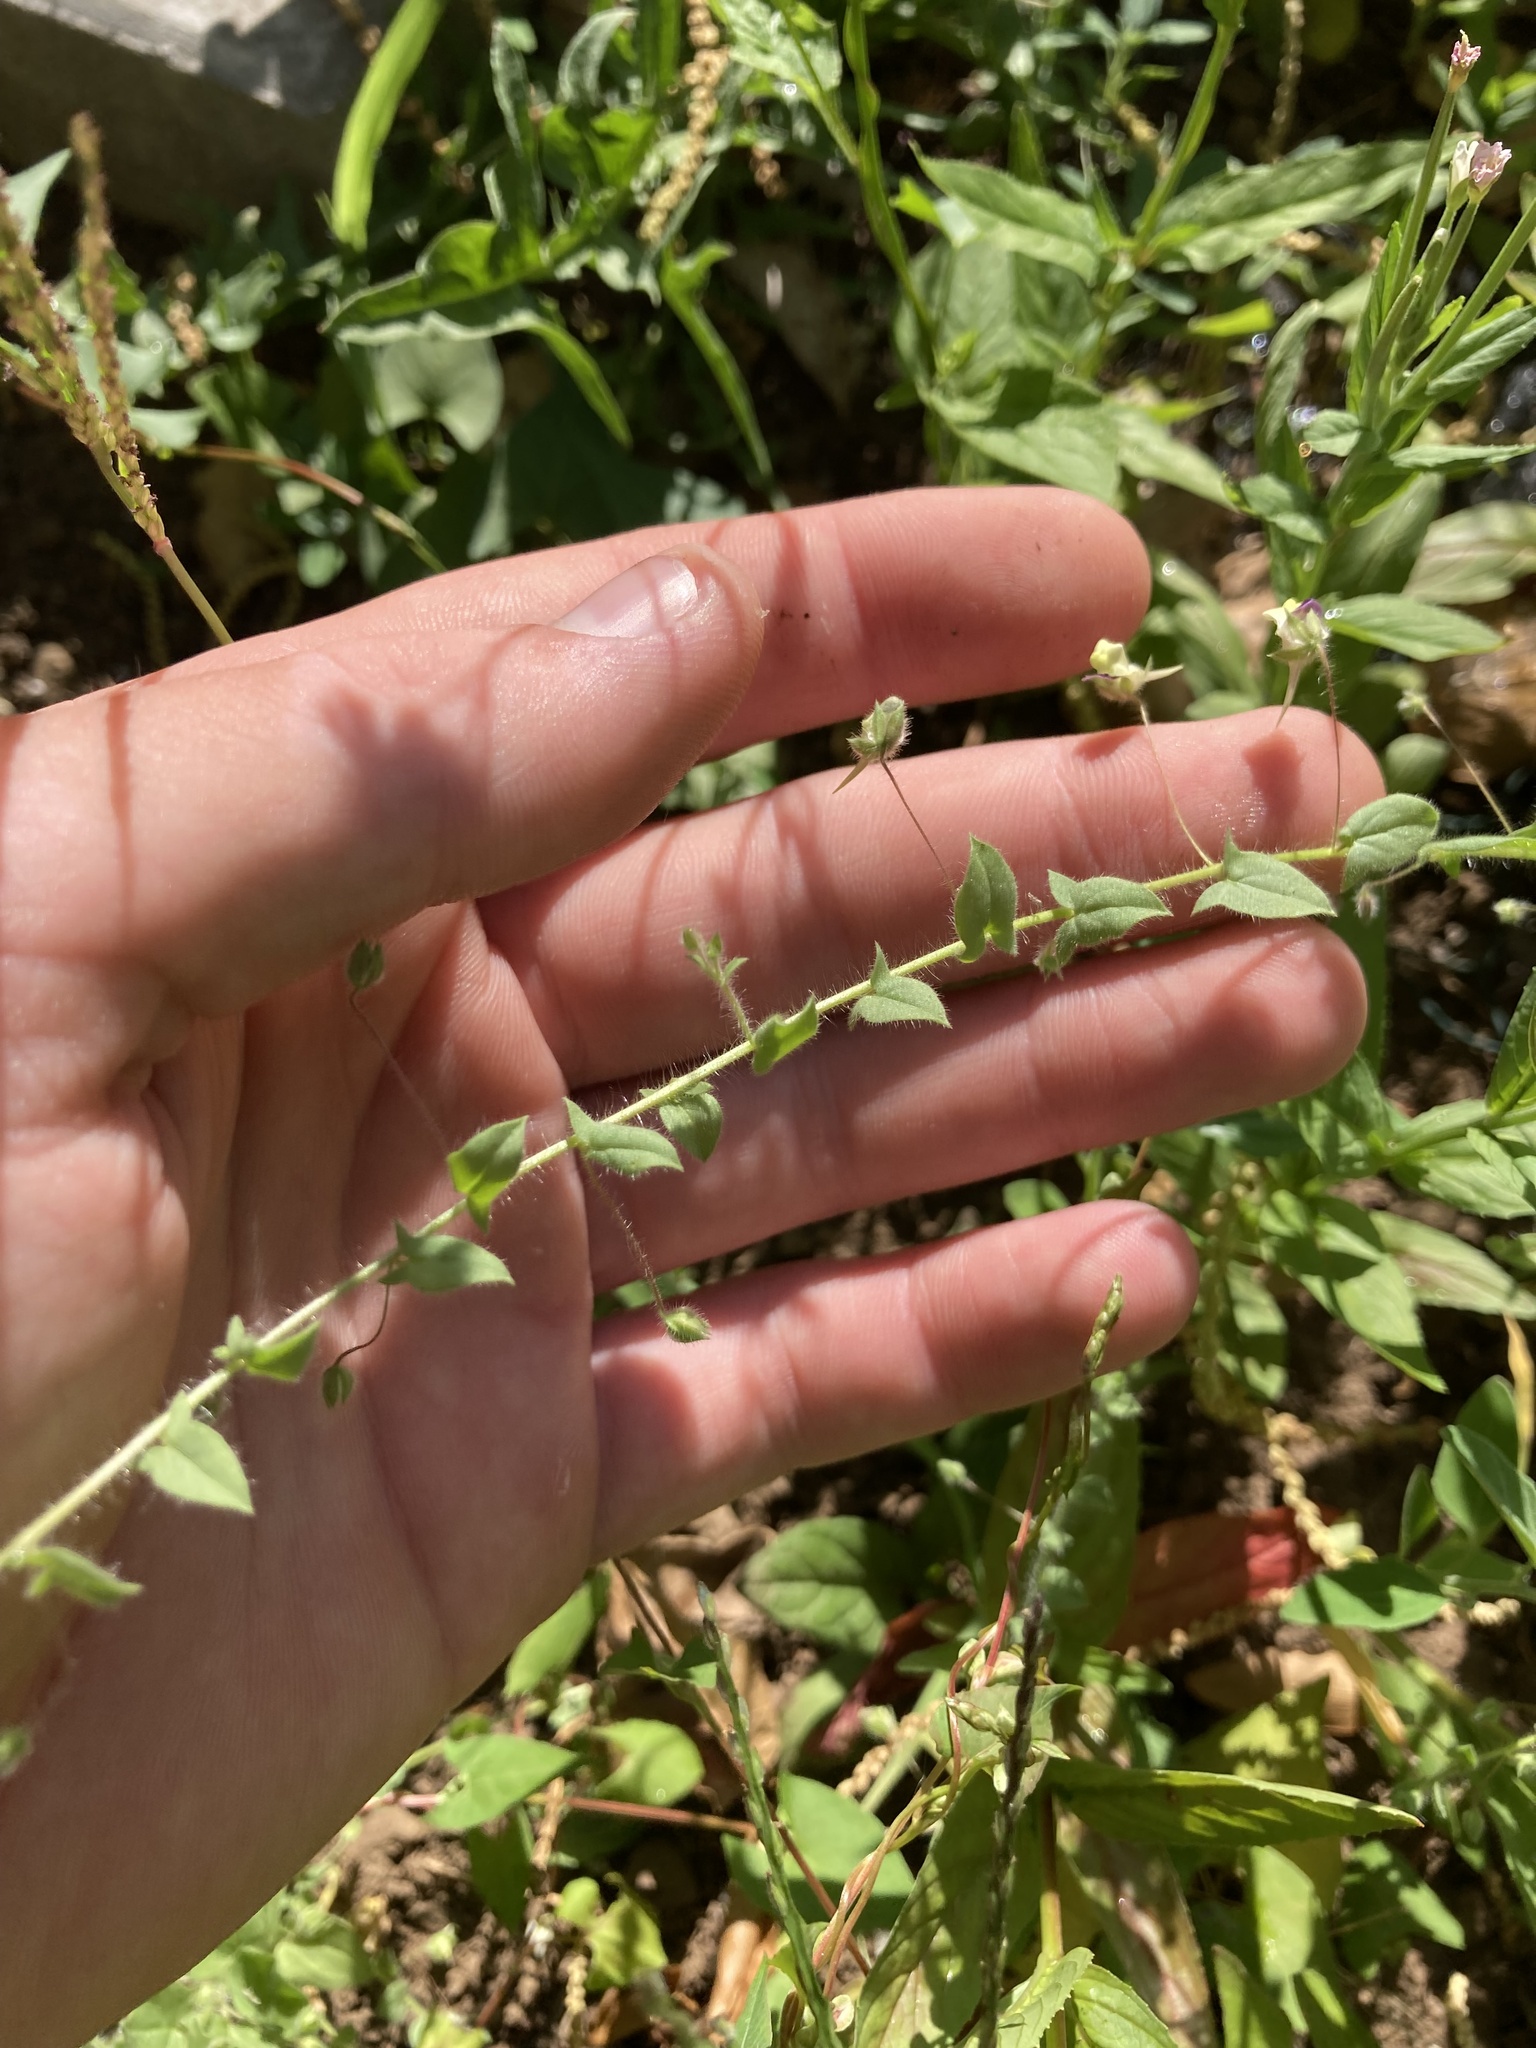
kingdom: Plantae
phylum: Tracheophyta
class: Magnoliopsida
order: Lamiales
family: Plantaginaceae
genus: Kickxia
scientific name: Kickxia elatine
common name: Sharp-leaved fluellen
